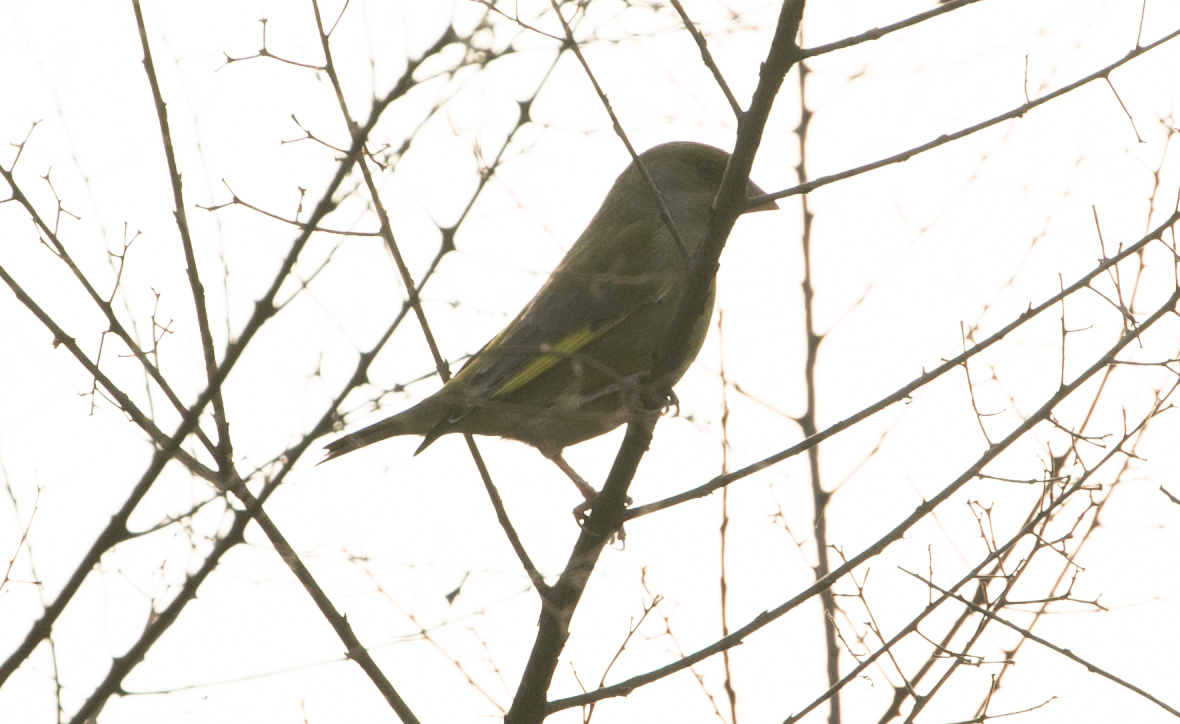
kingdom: Plantae
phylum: Tracheophyta
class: Liliopsida
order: Poales
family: Poaceae
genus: Chloris
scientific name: Chloris chloris
